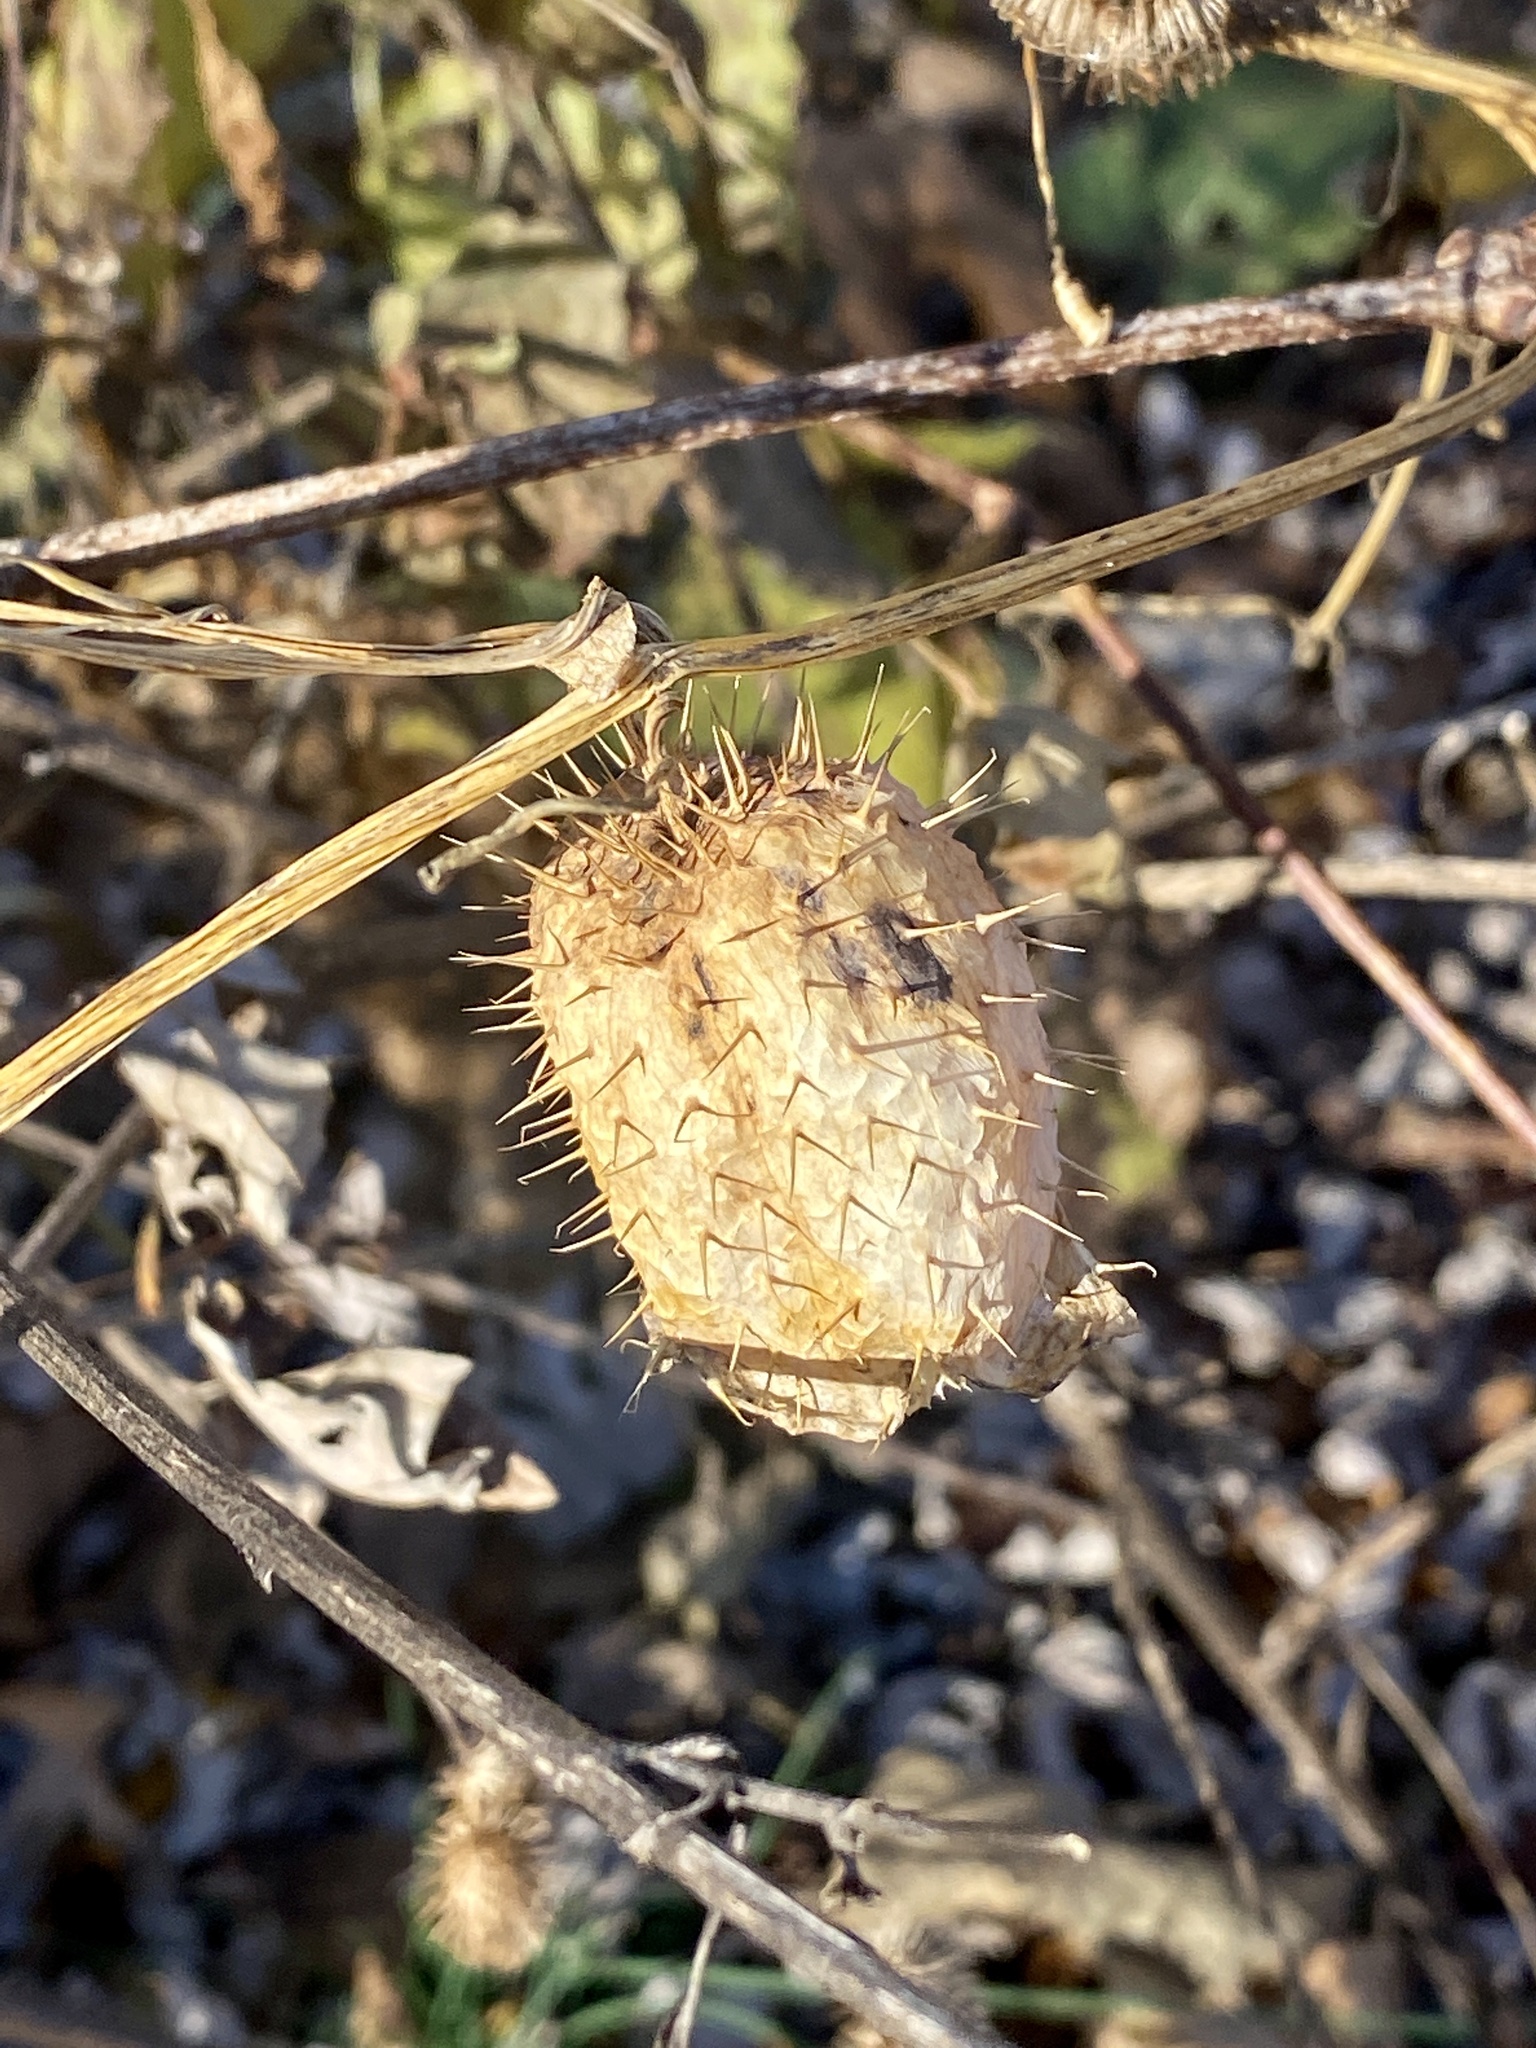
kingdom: Plantae
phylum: Tracheophyta
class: Magnoliopsida
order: Cucurbitales
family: Cucurbitaceae
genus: Echinocystis
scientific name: Echinocystis lobata
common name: Wild cucumber
